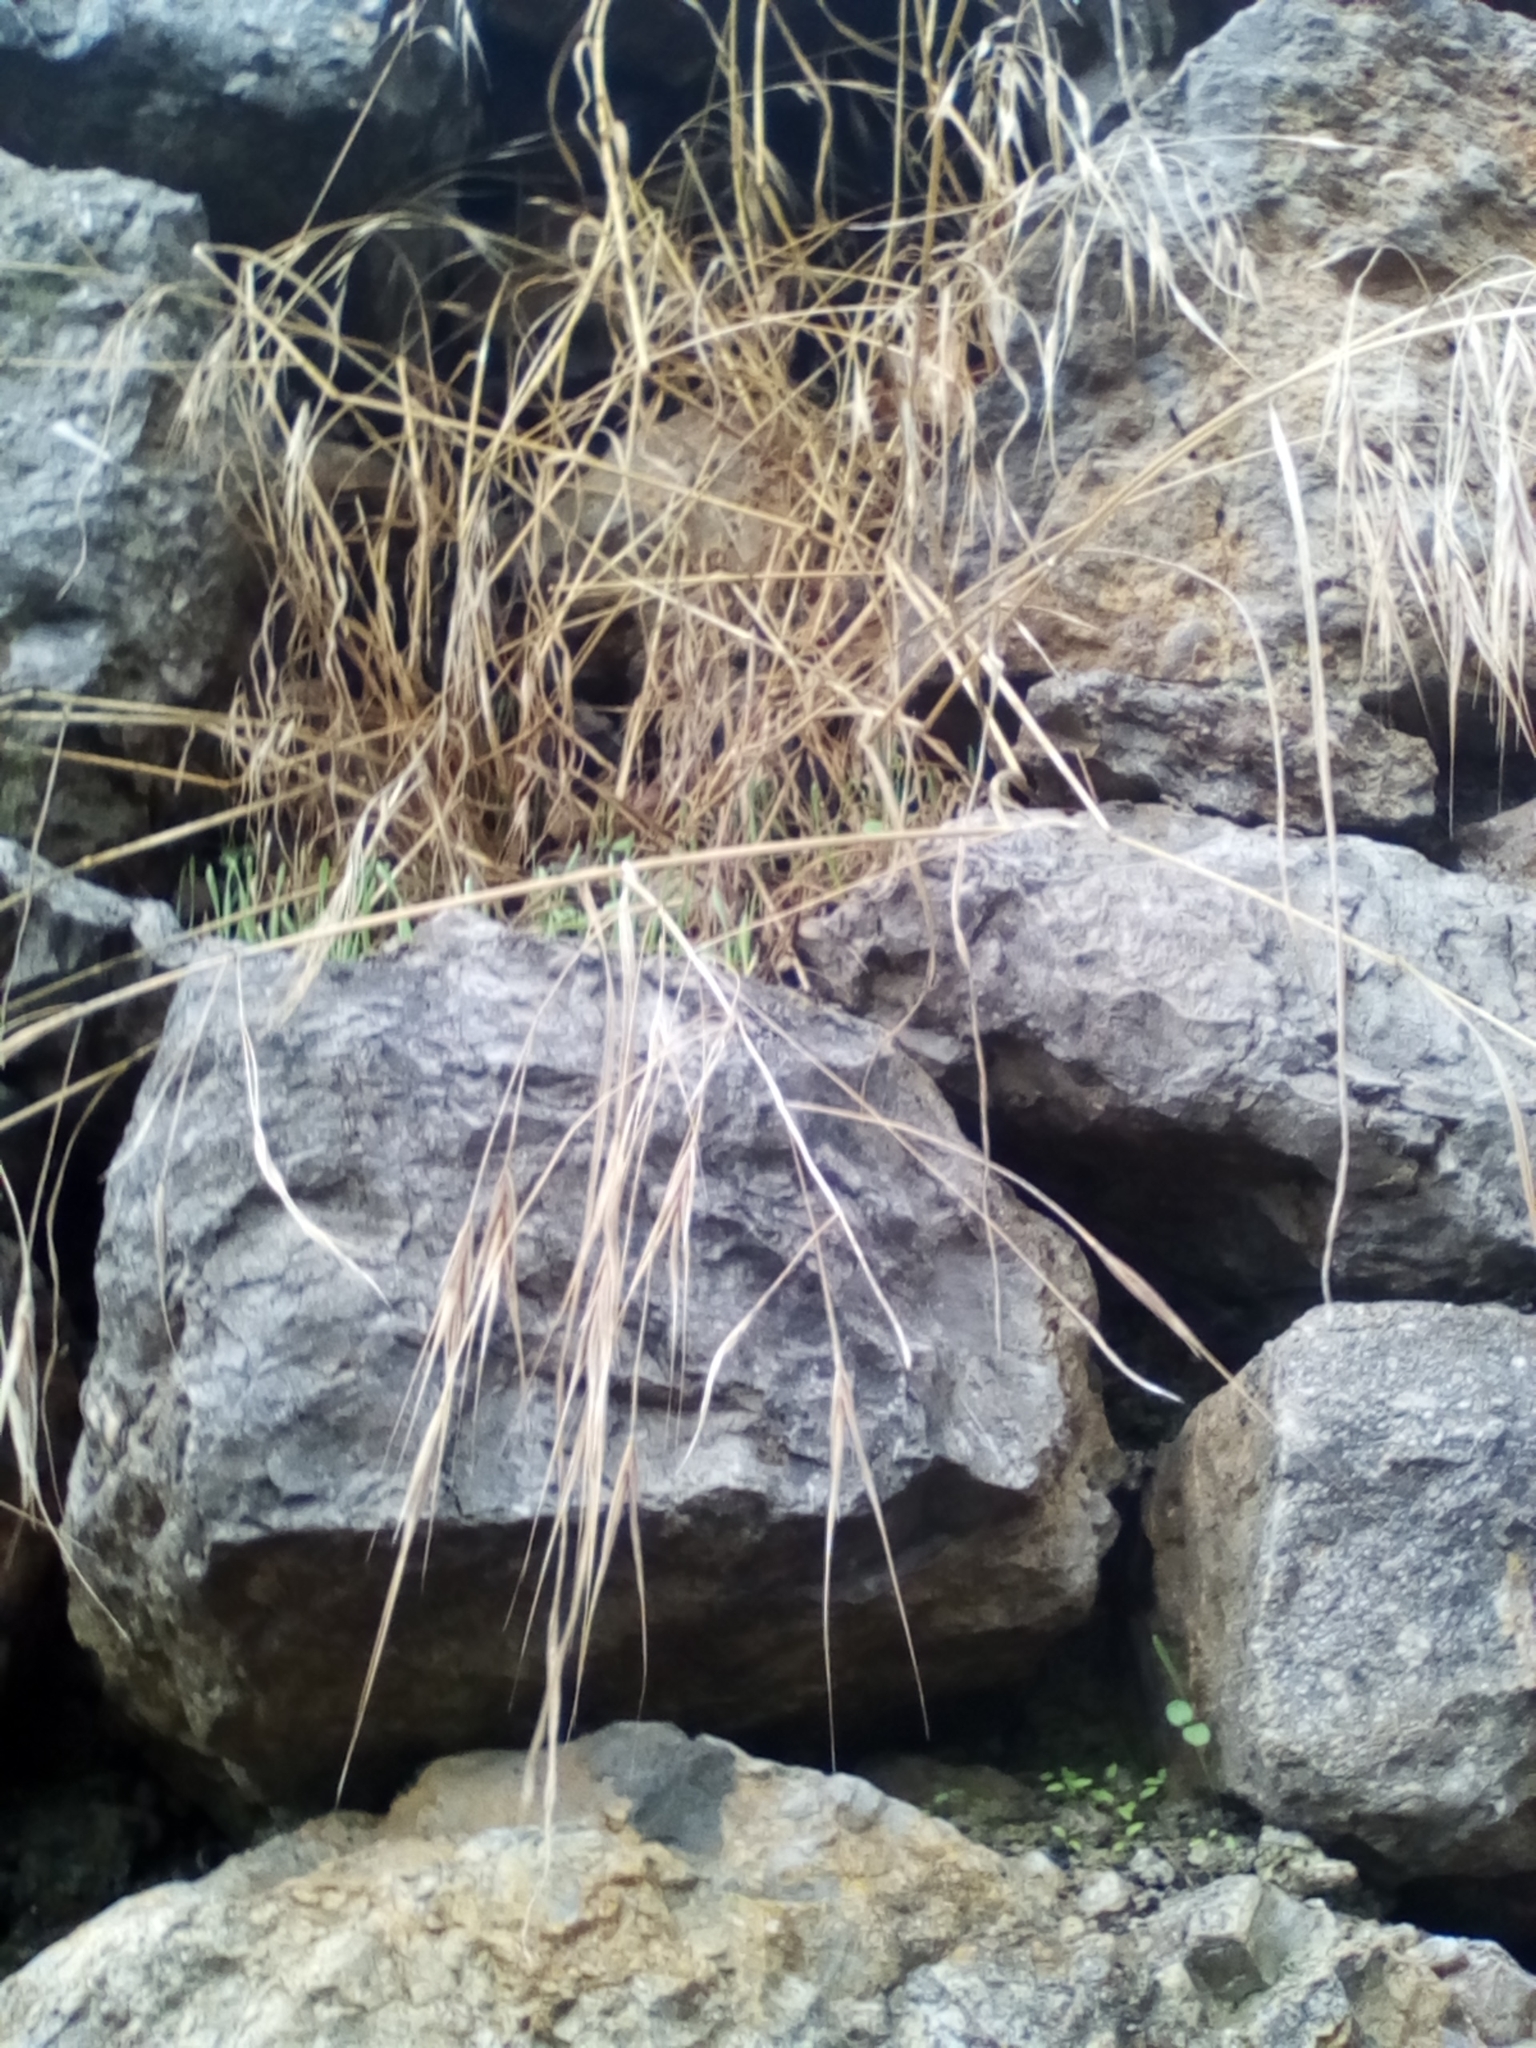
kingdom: Plantae
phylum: Tracheophyta
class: Liliopsida
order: Poales
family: Poaceae
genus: Bromus
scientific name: Bromus sterilis
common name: Poverty brome
